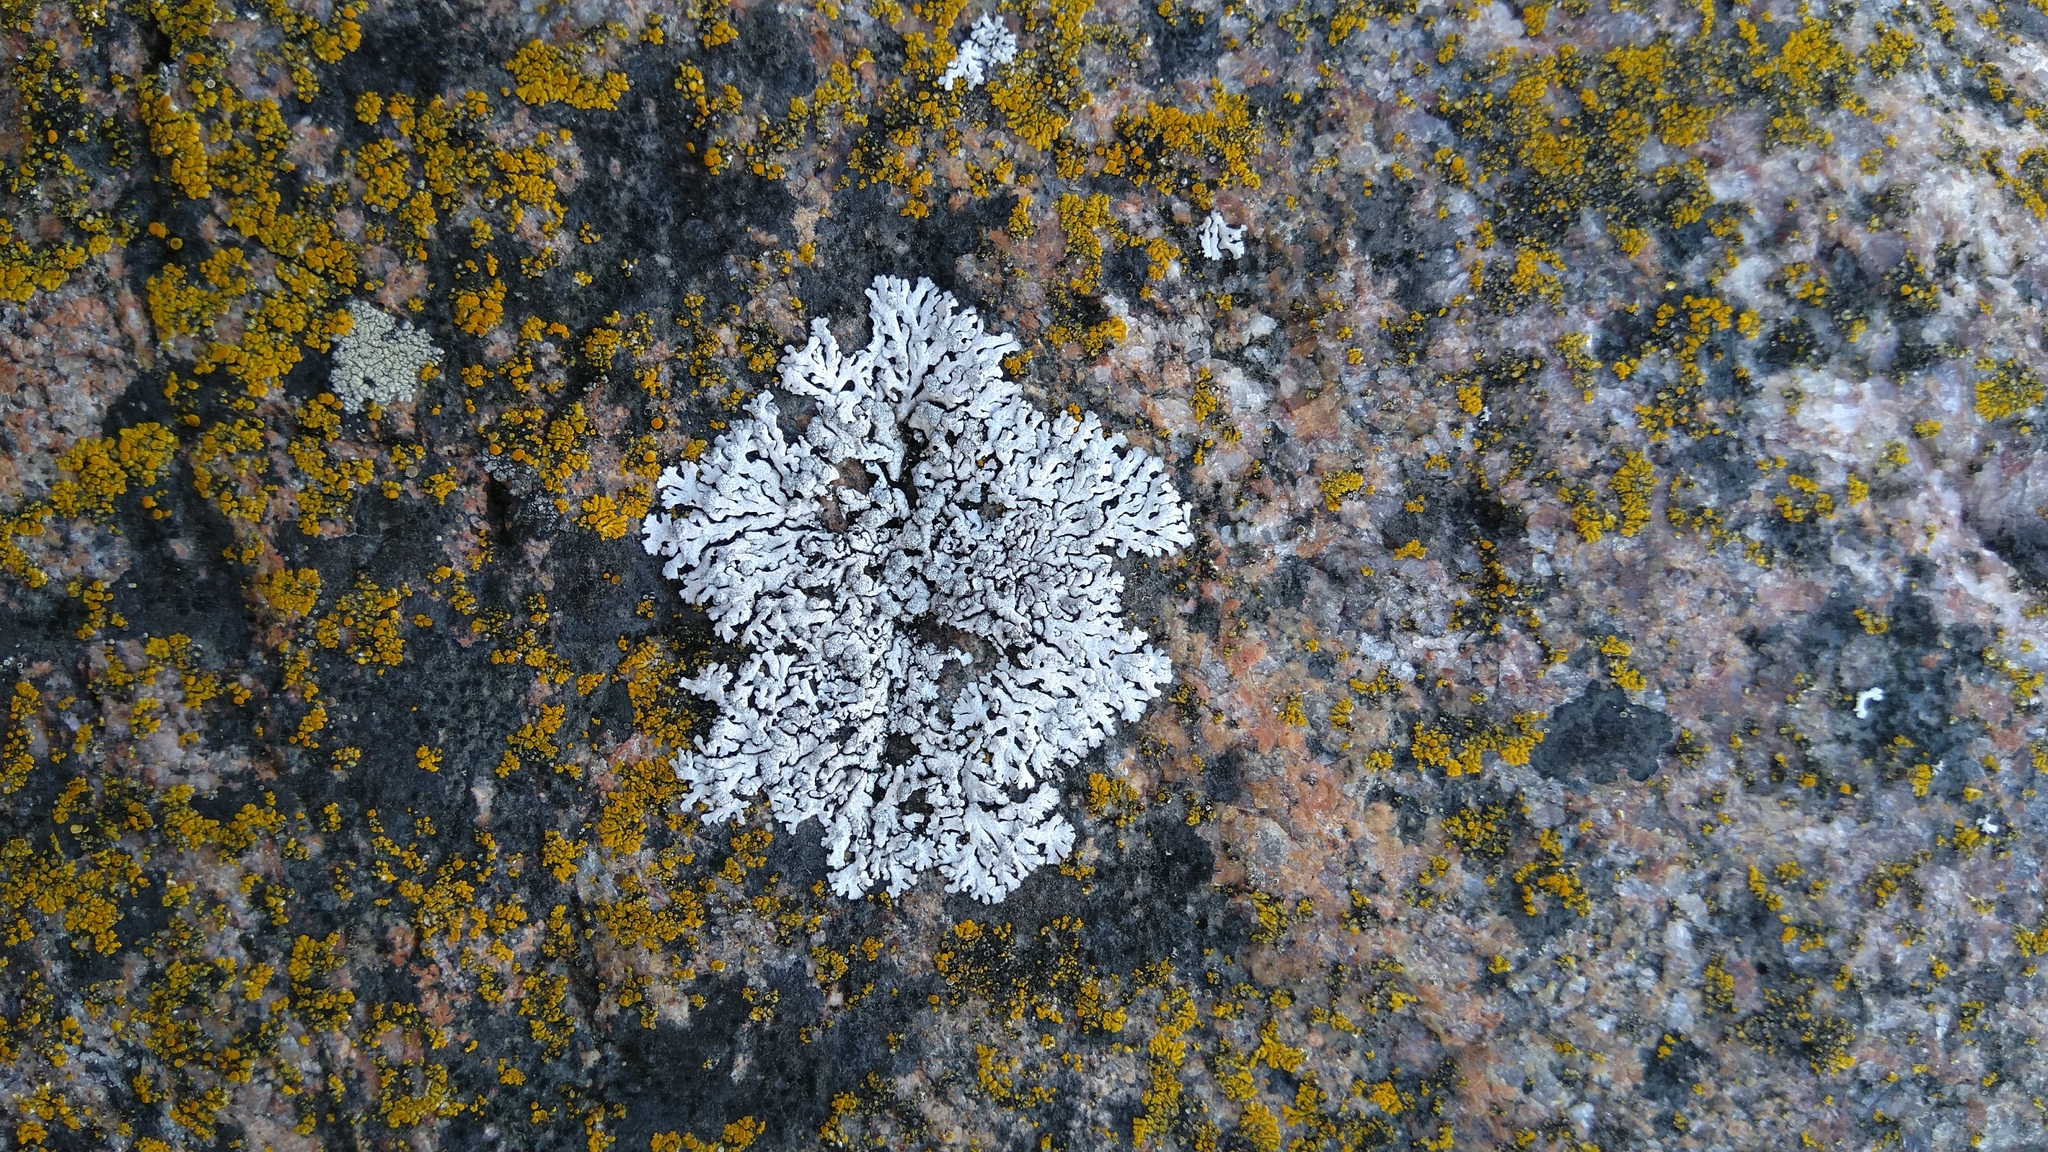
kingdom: Fungi
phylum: Ascomycota
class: Lecanoromycetes
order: Caliciales
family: Physciaceae
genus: Physcia
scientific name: Physcia caesia
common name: Blue-gray rosette lichen
